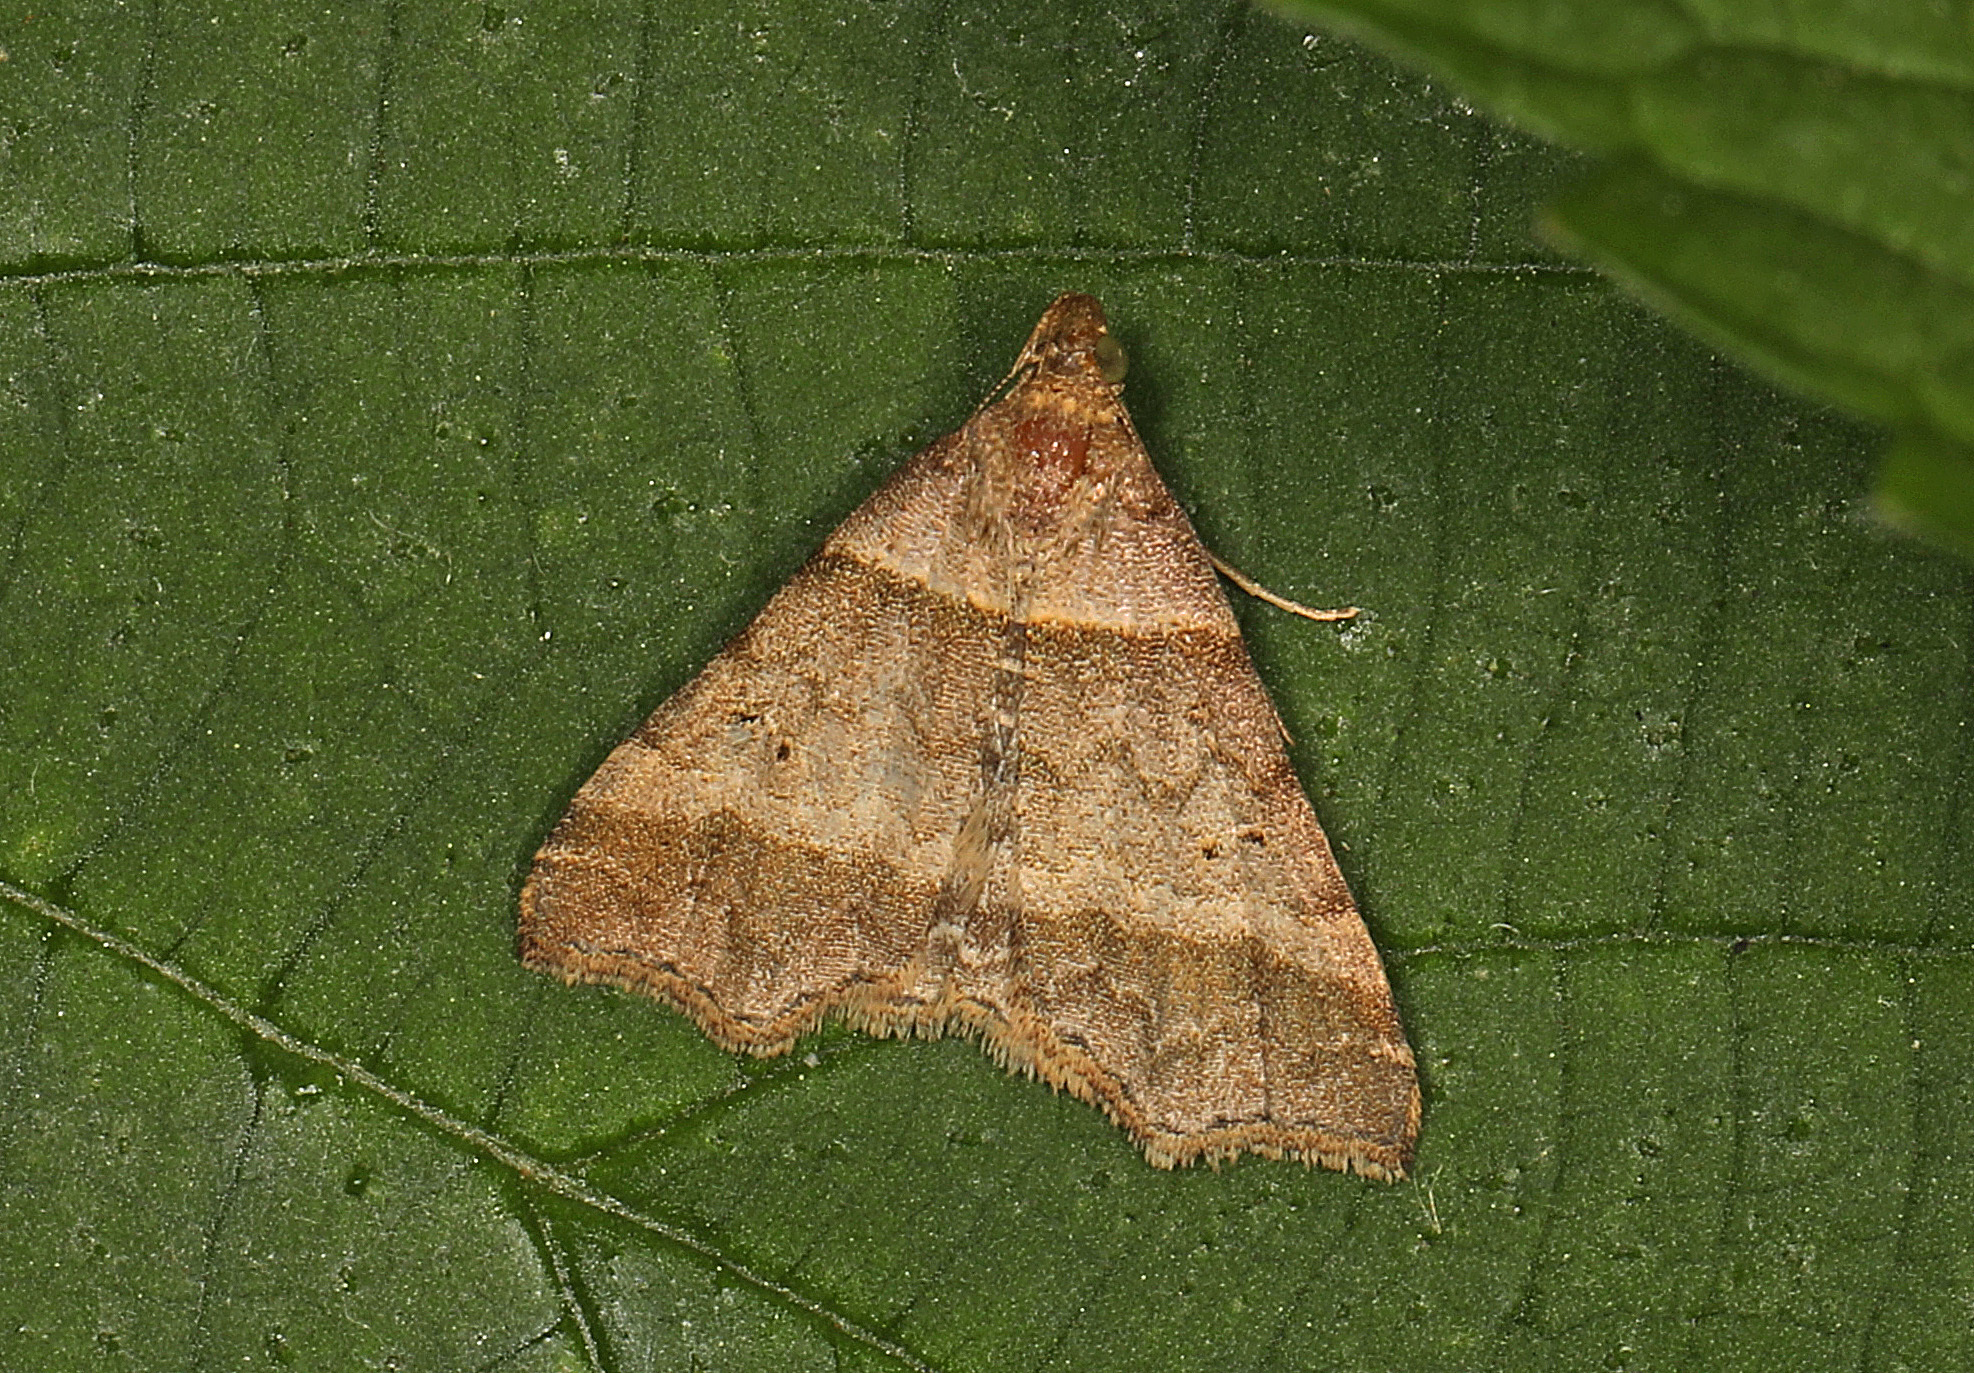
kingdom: Animalia
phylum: Arthropoda
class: Insecta
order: Lepidoptera
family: Erebidae
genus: Phaeolita
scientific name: Phaeolita pyramusalis
